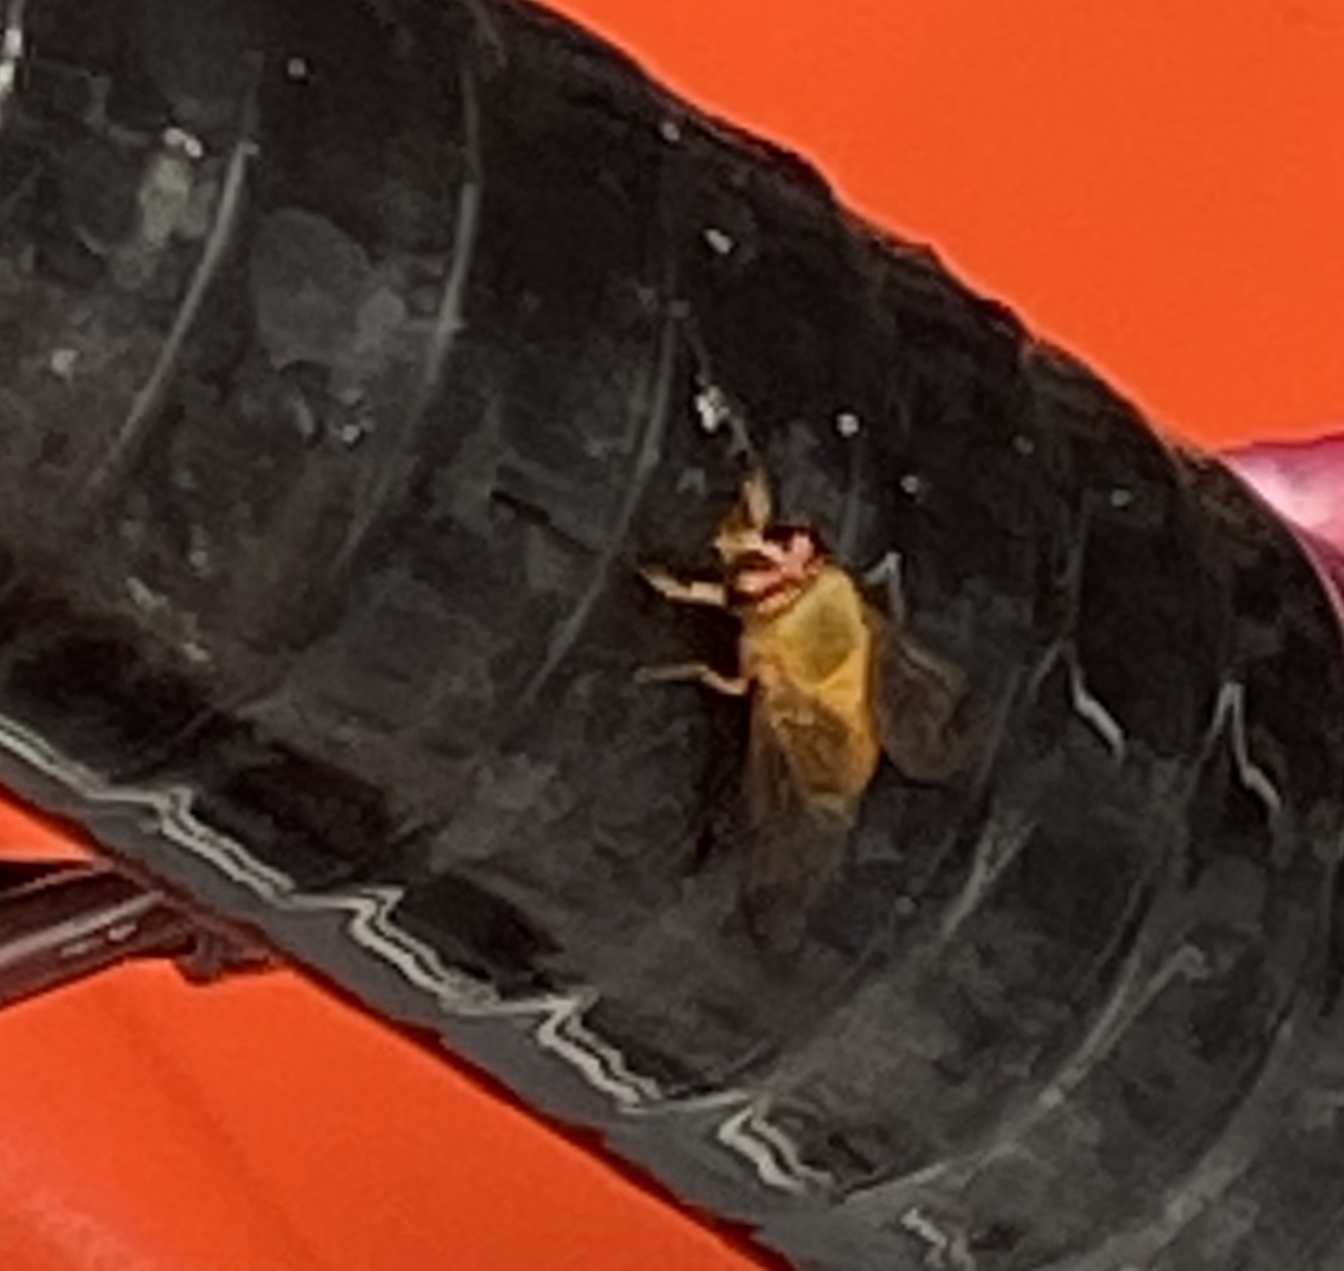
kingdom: Animalia
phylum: Arthropoda
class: Insecta
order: Diptera
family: Tabanidae
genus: Diachlorus
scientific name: Diachlorus ferrugatus
